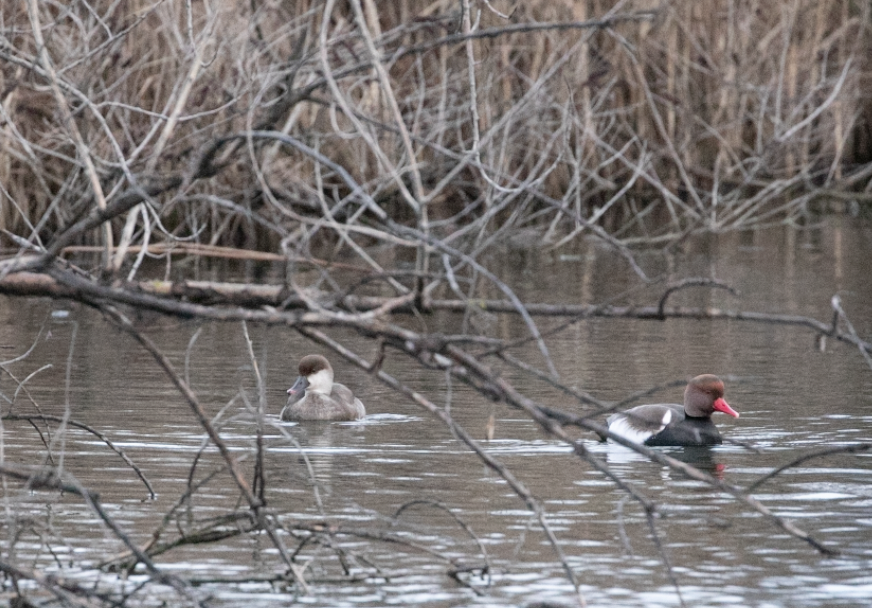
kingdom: Animalia
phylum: Chordata
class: Aves
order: Anseriformes
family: Anatidae
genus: Netta
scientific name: Netta rufina
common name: Red-crested pochard
